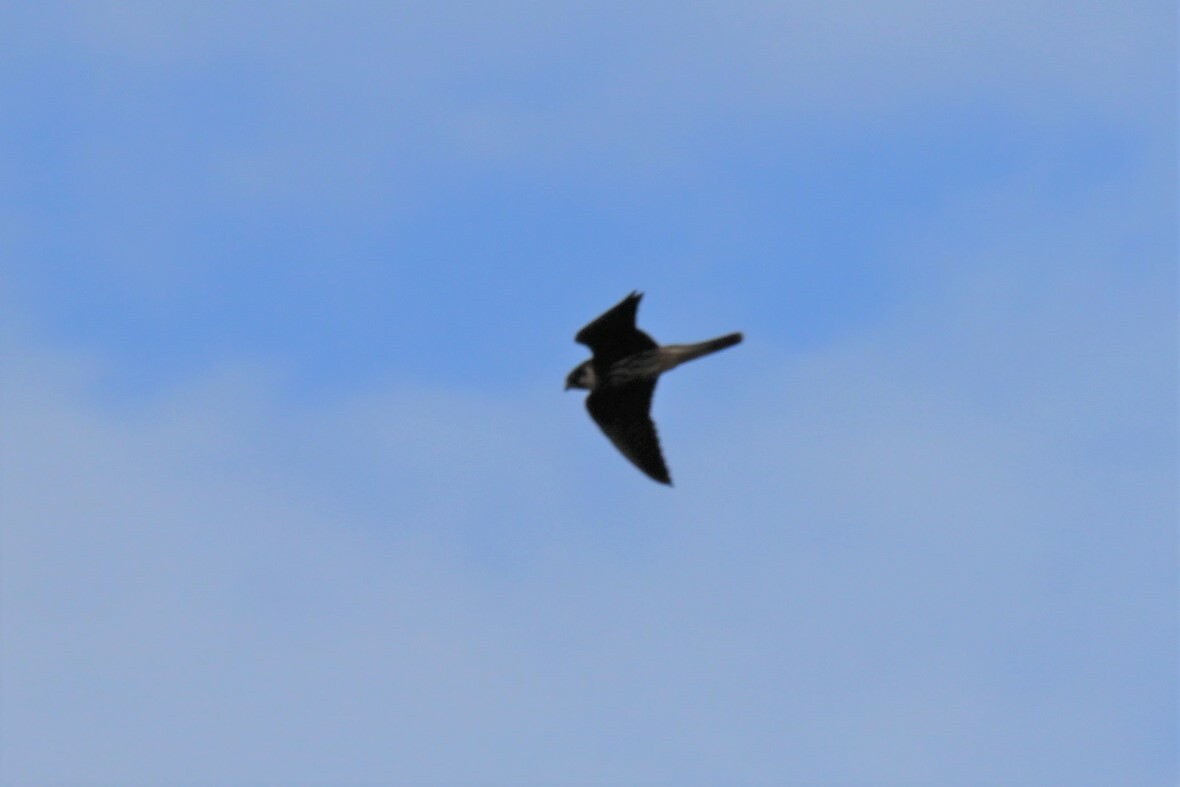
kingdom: Animalia
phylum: Chordata
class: Aves
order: Falconiformes
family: Falconidae
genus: Falco
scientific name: Falco subbuteo
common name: Eurasian hobby
